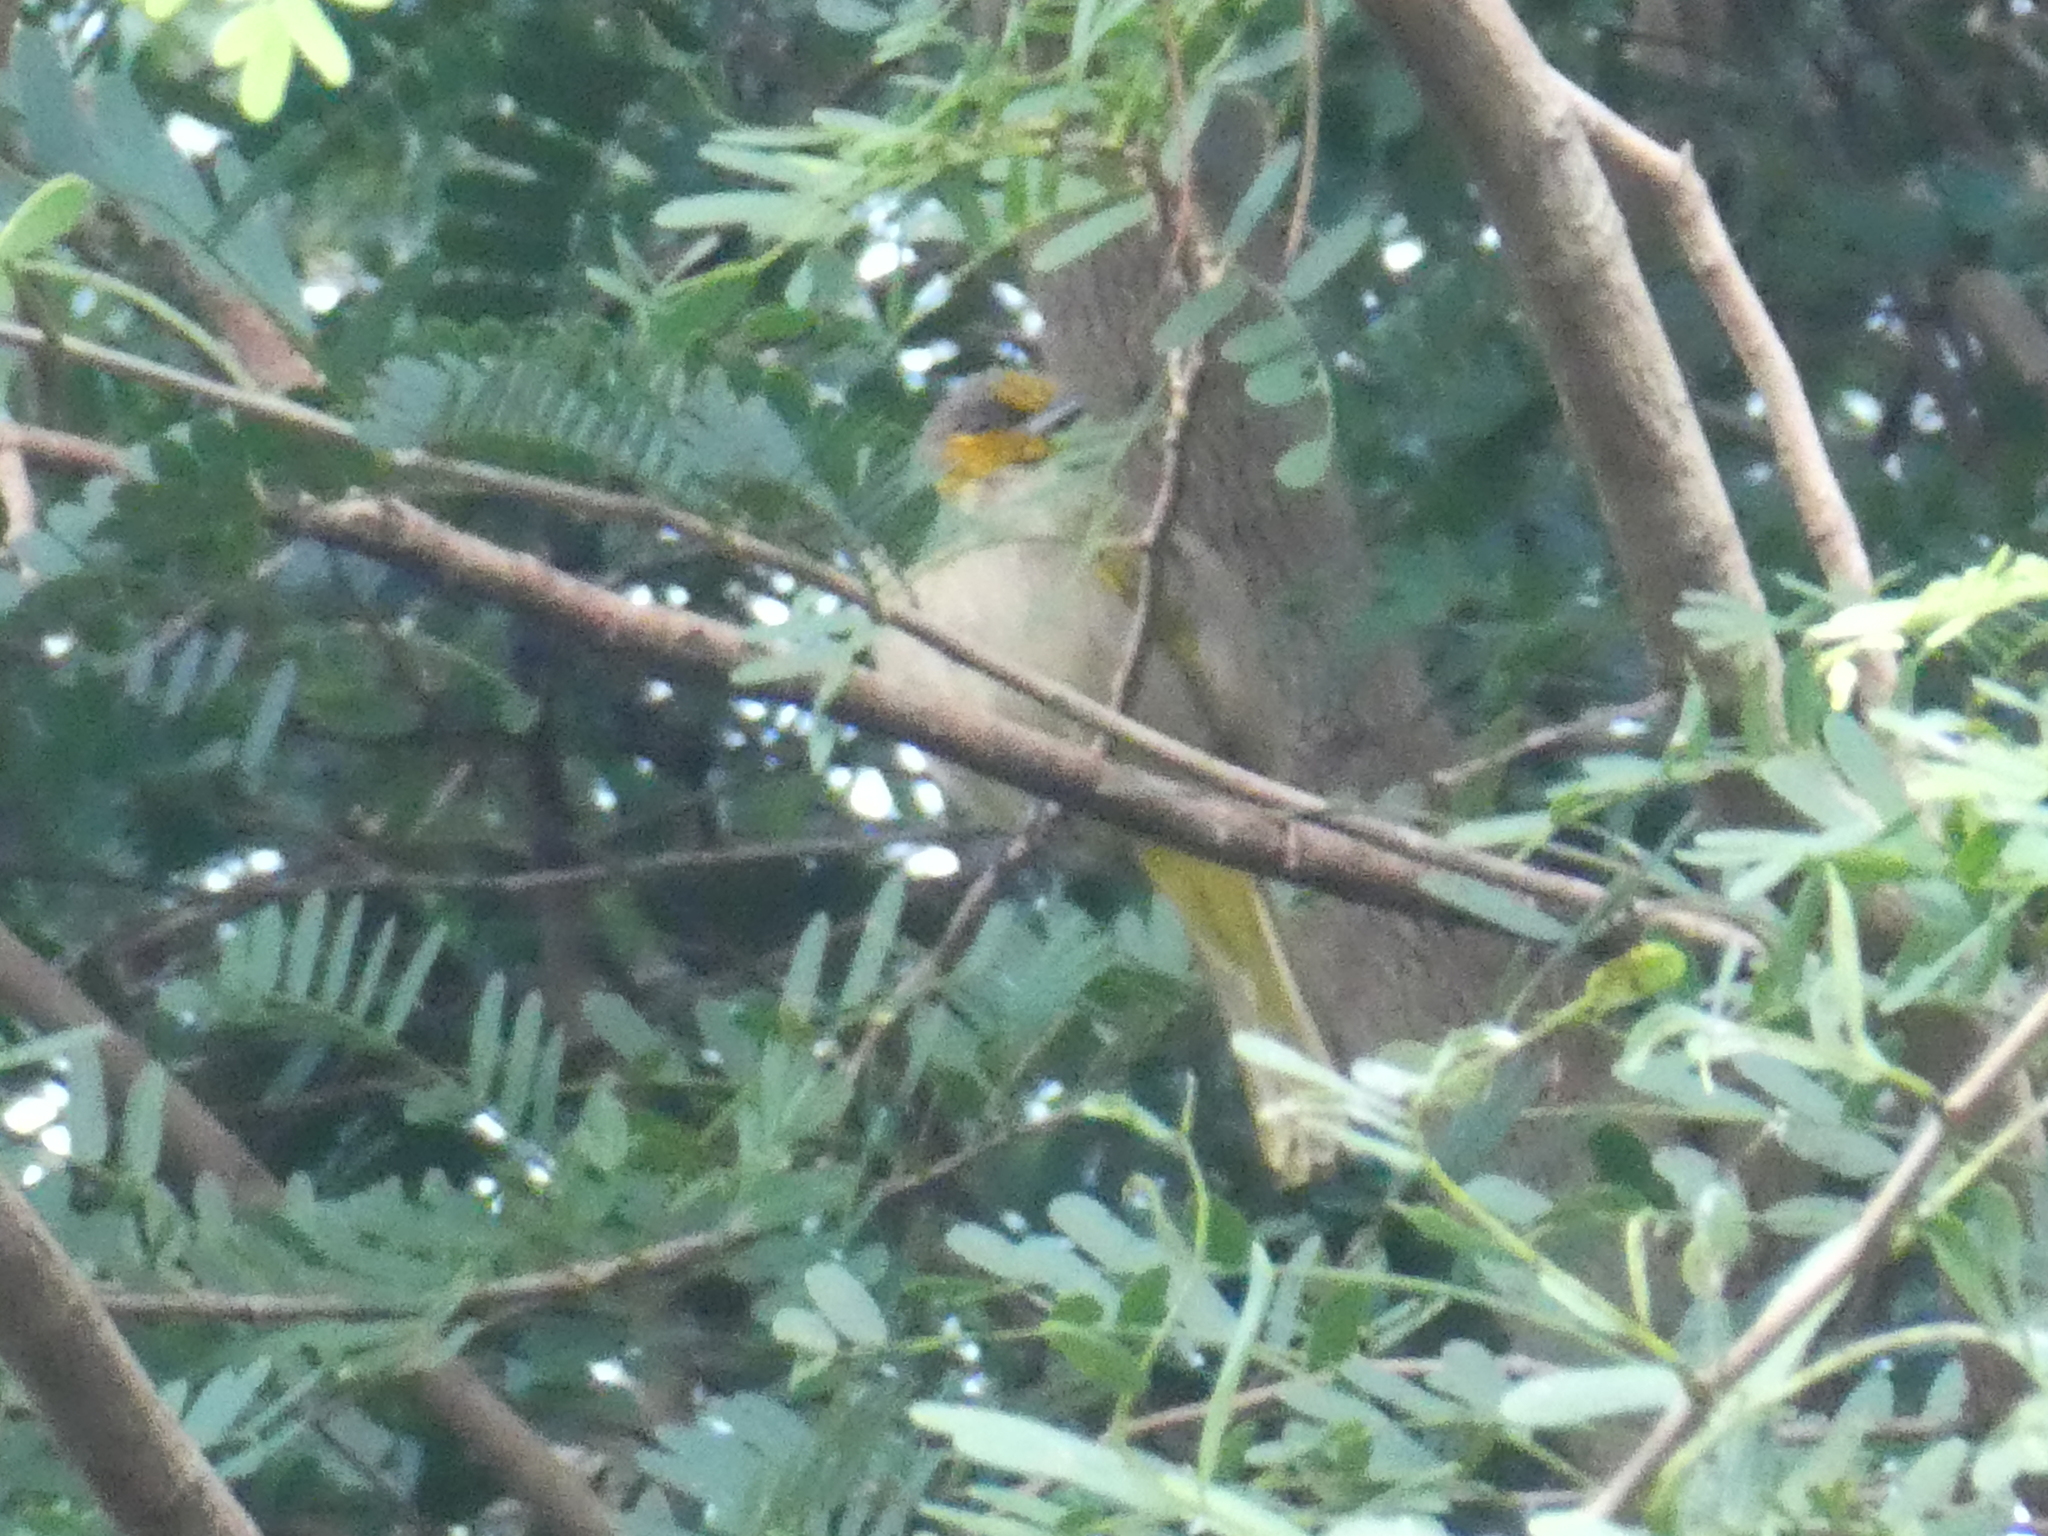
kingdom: Animalia
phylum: Chordata
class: Aves
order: Passeriformes
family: Pycnonotidae
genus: Pycnonotus
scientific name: Pycnonotus finlaysoni
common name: Stripe-throated bulbul
